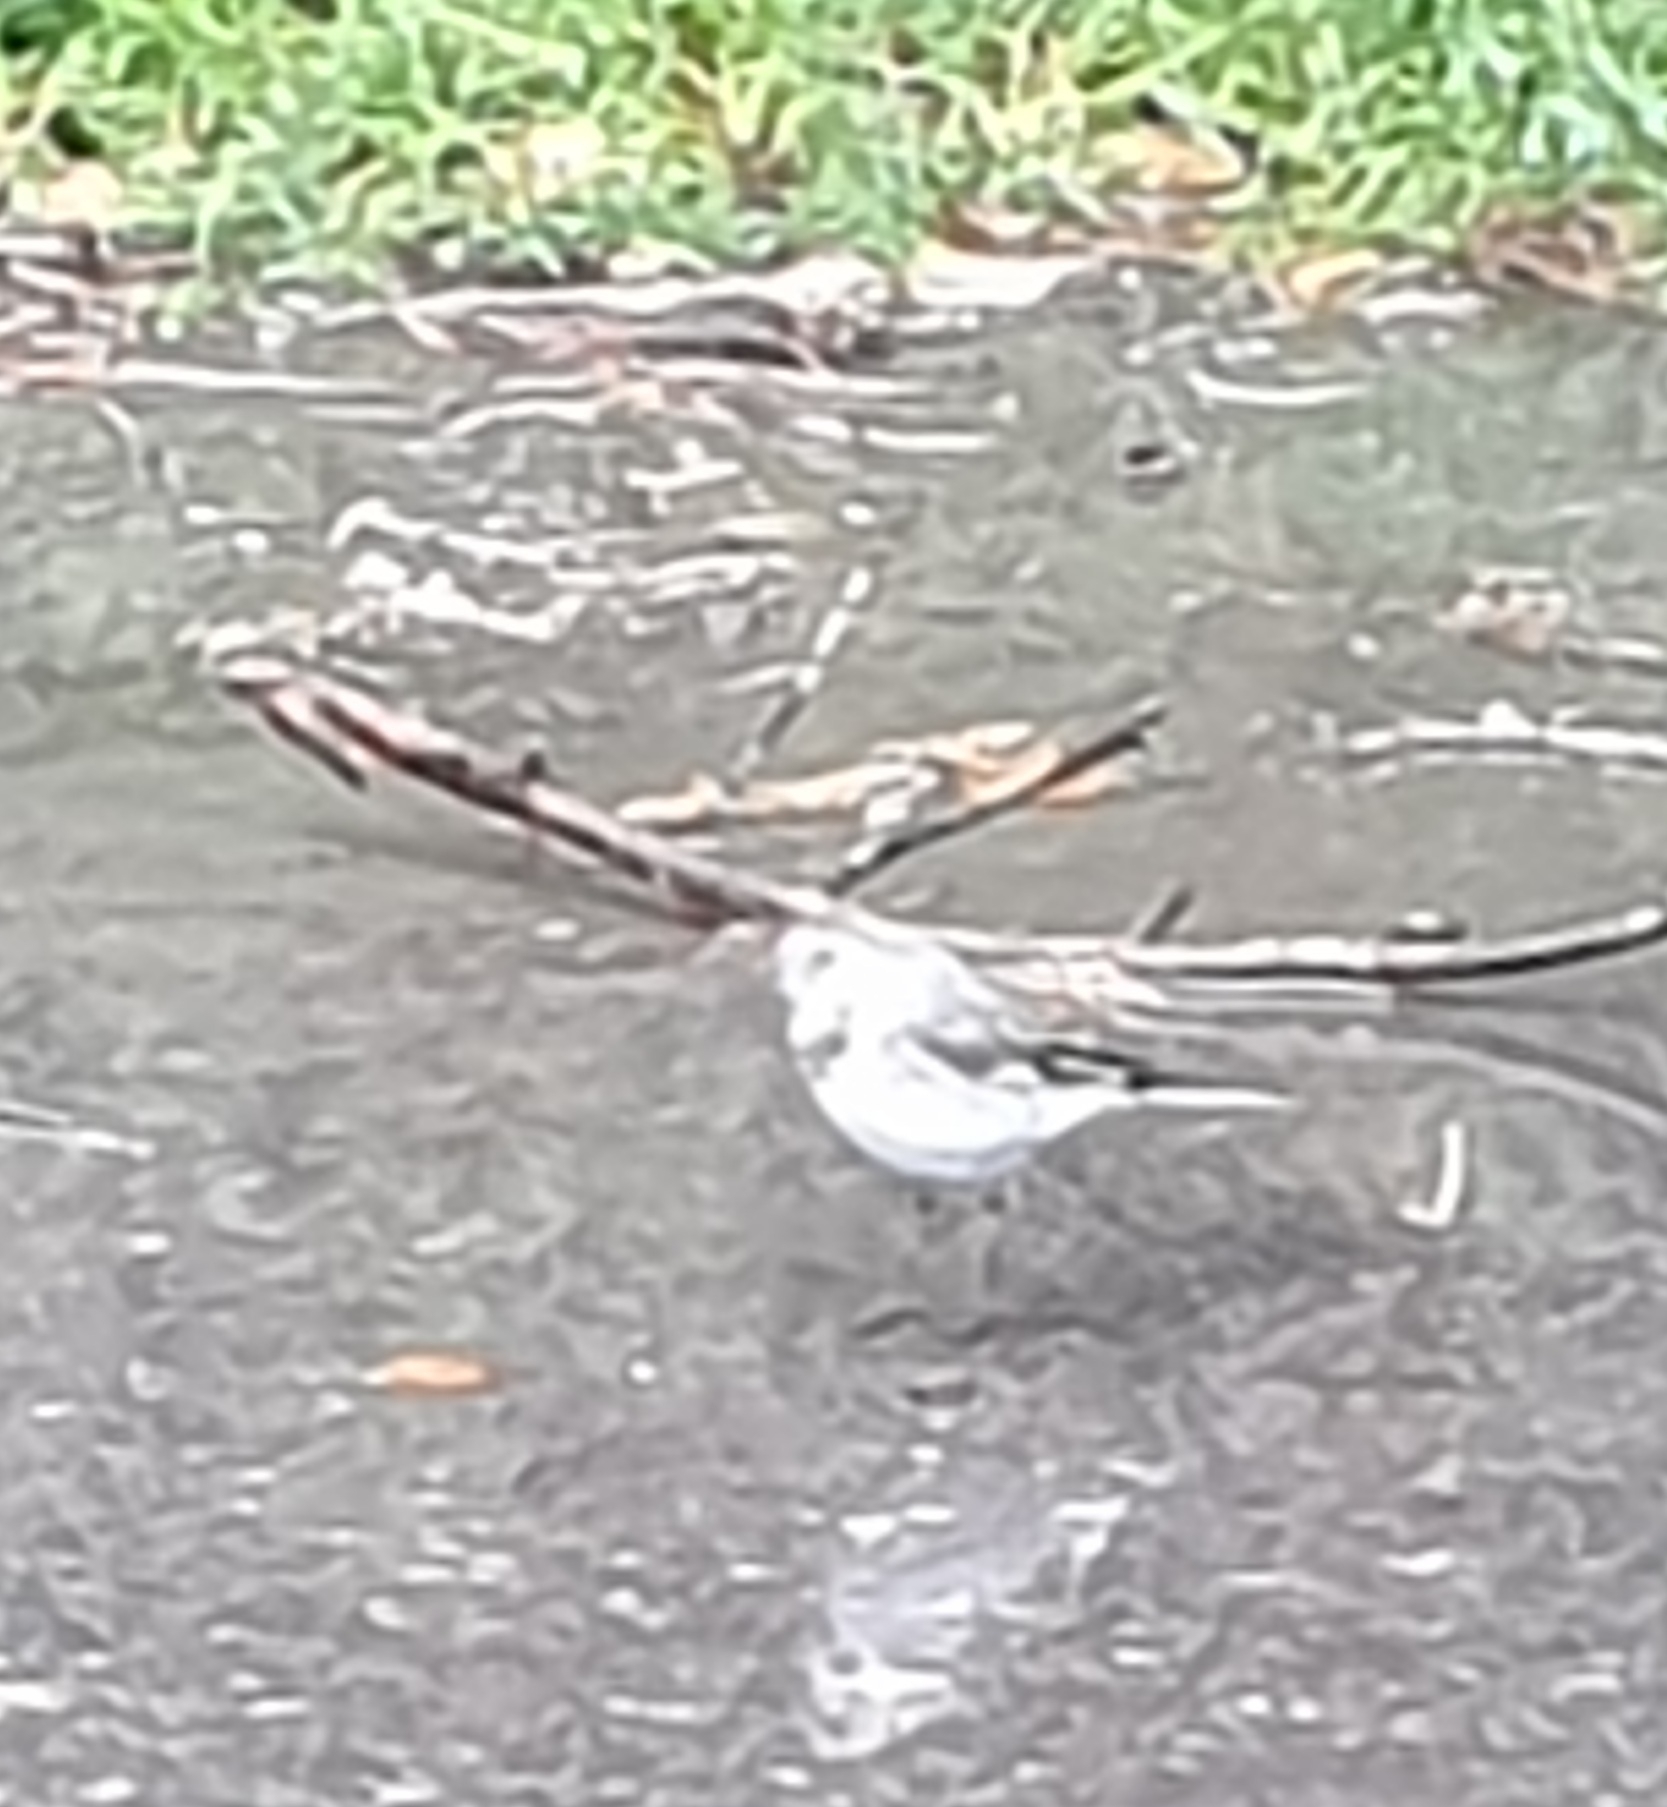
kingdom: Animalia
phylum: Chordata
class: Aves
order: Passeriformes
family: Motacillidae
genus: Motacilla
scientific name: Motacilla alba
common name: White wagtail
